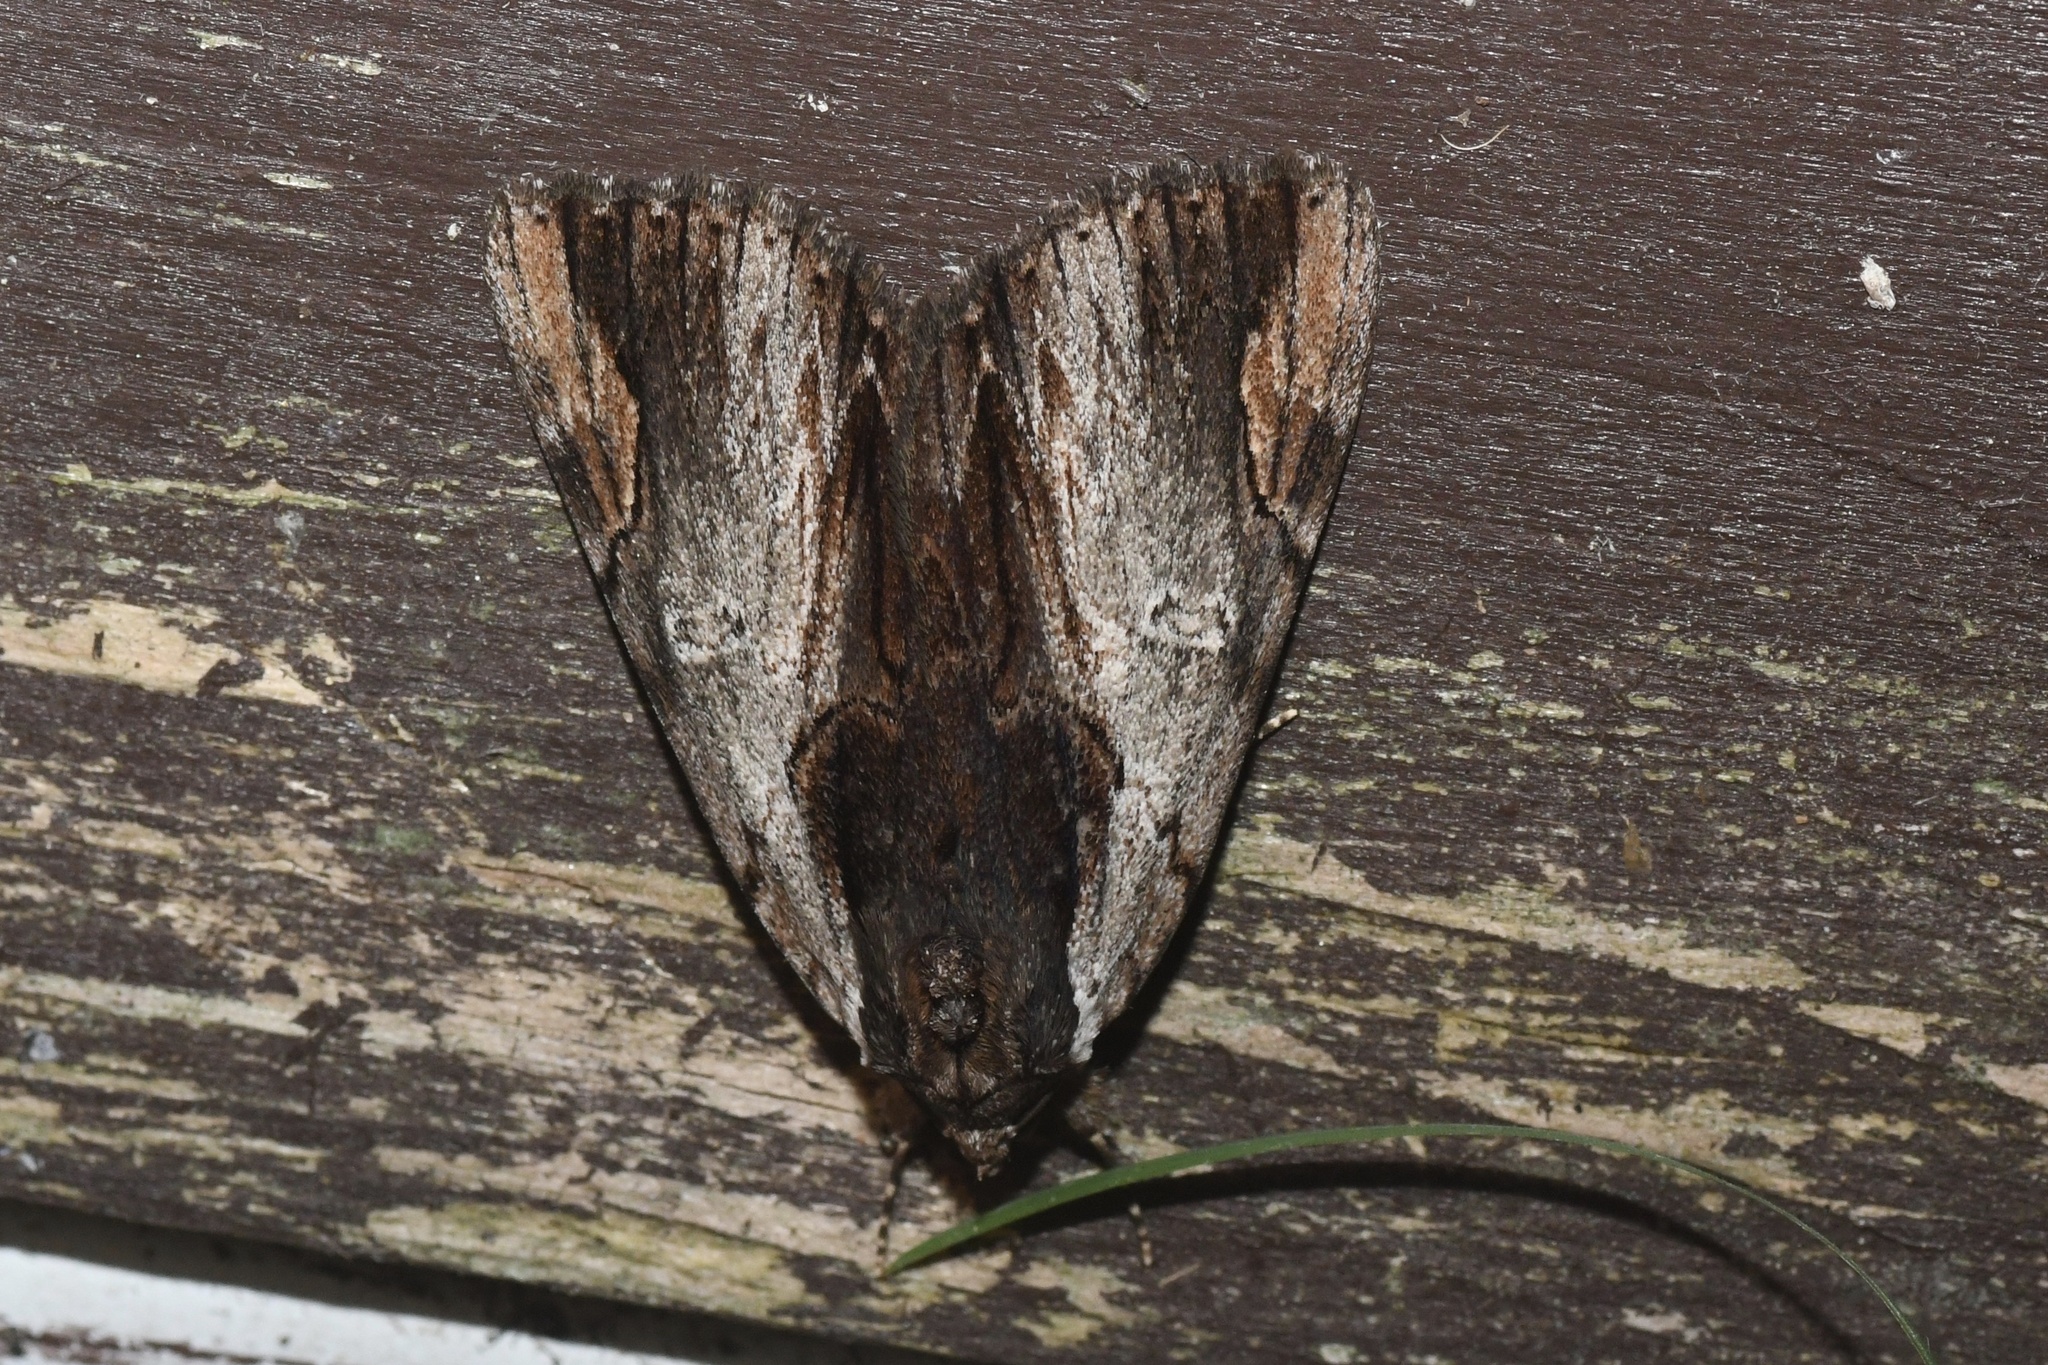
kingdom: Animalia
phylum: Arthropoda
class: Insecta
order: Lepidoptera
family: Erebidae
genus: Catocala
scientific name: Catocala ultronia
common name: Ultronia underwing
